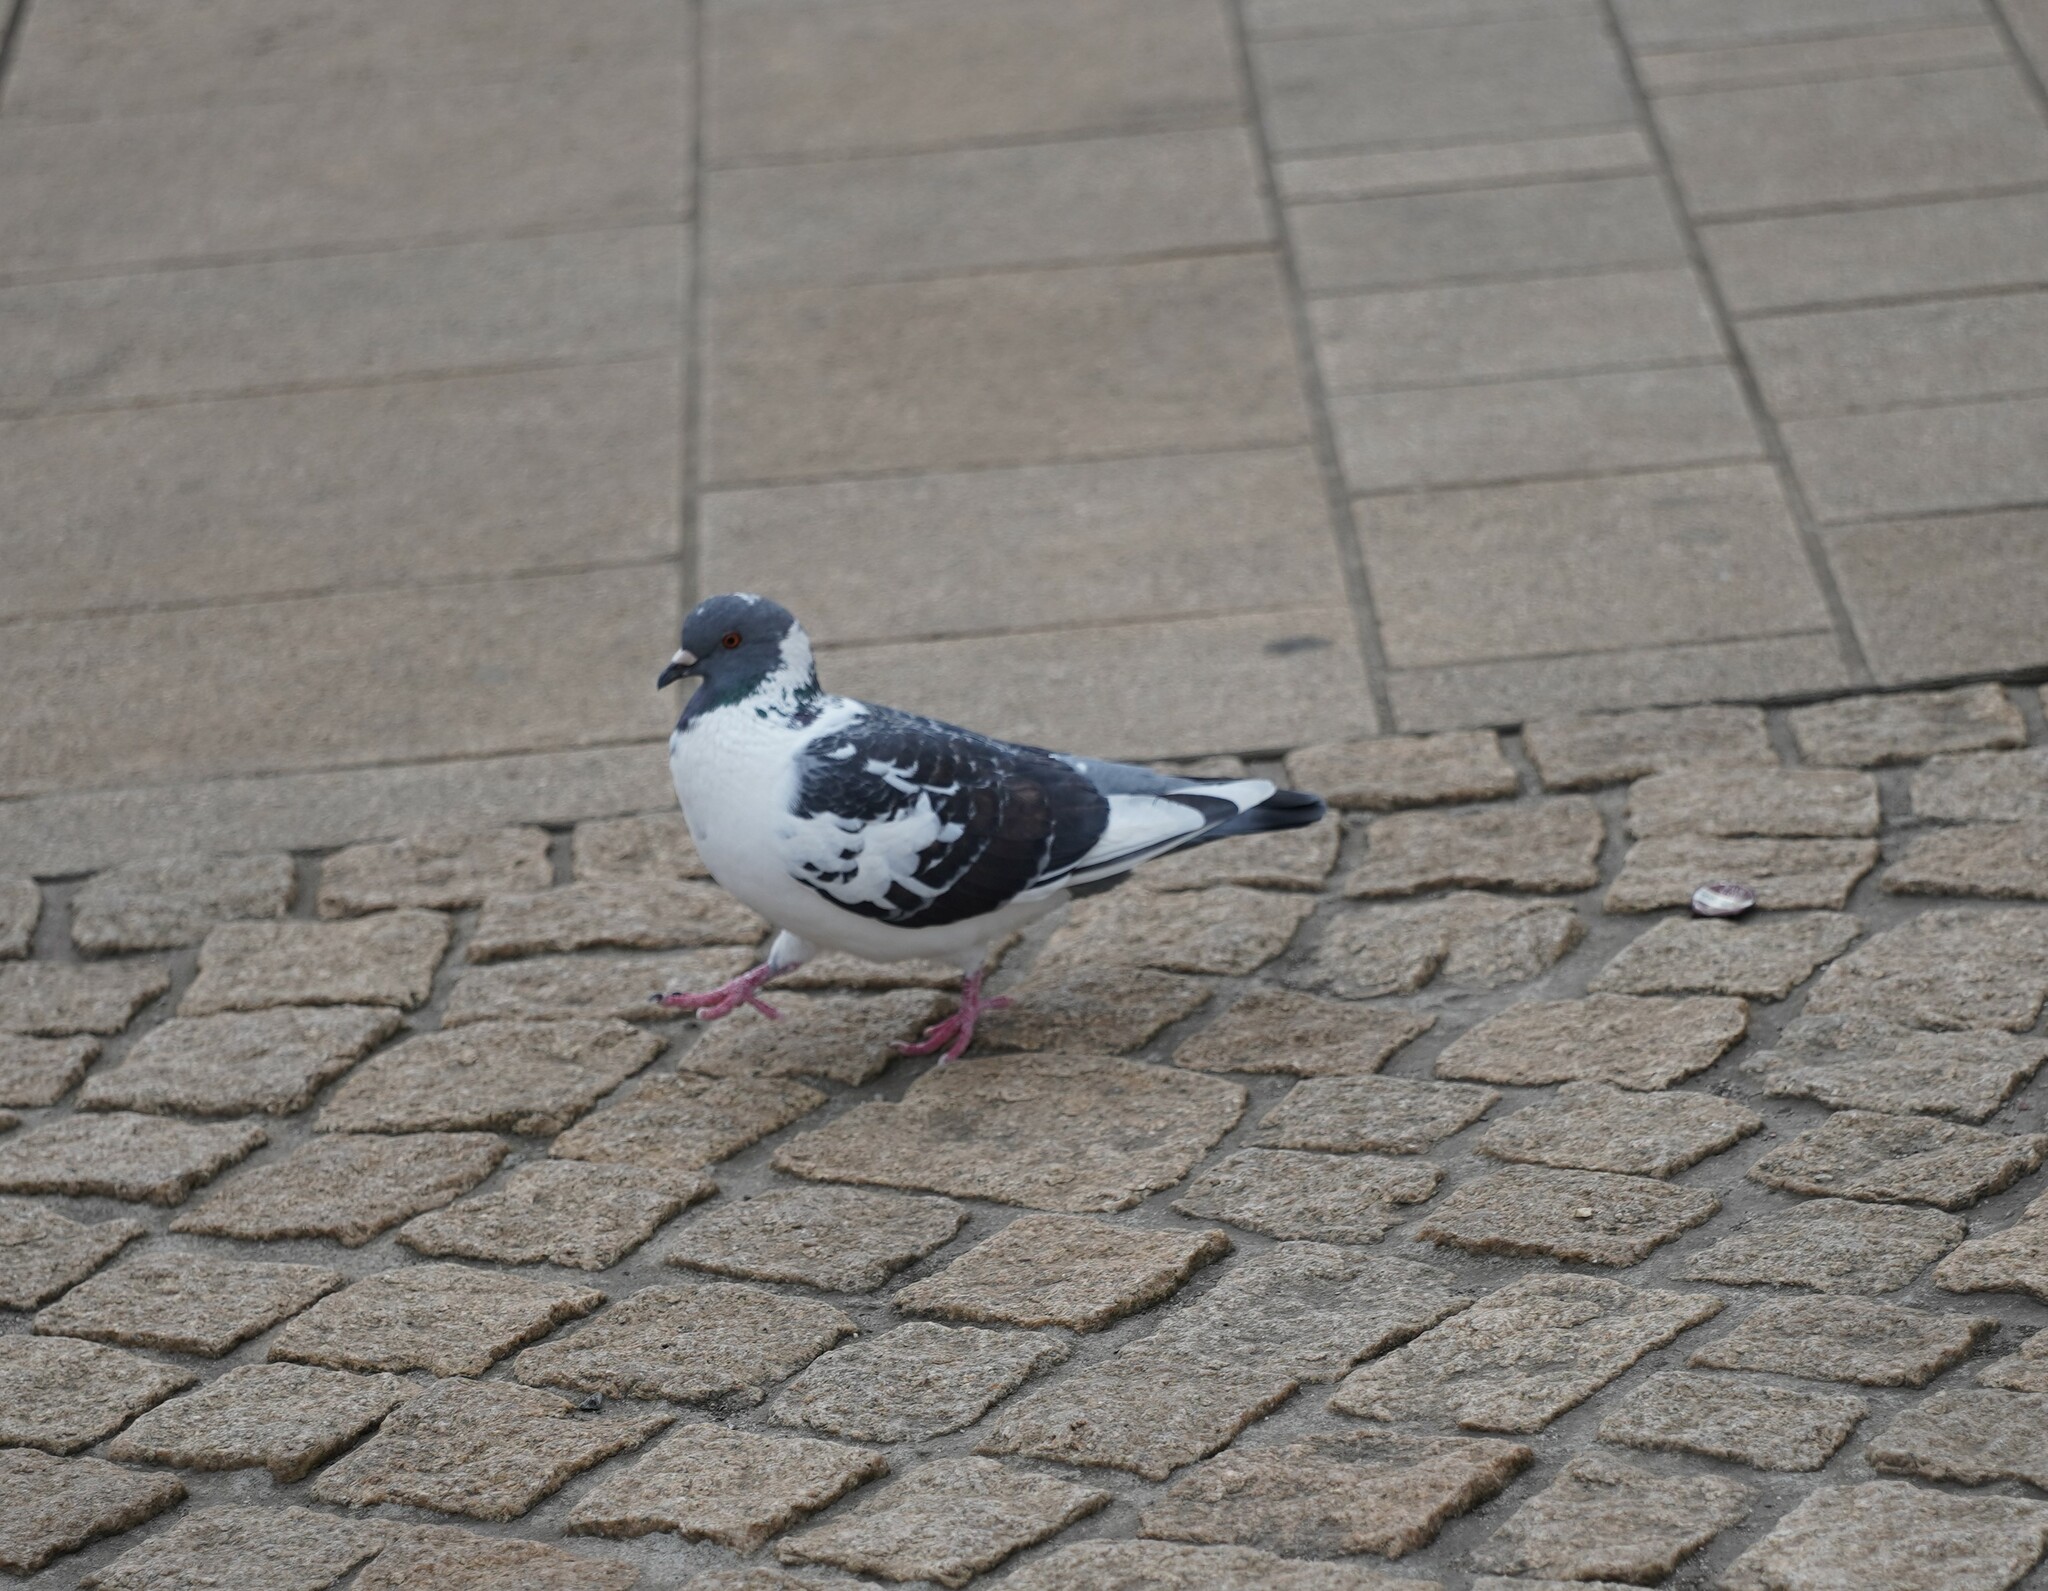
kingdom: Animalia
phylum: Chordata
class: Aves
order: Columbiformes
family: Columbidae
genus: Columba
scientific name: Columba livia
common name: Rock pigeon
